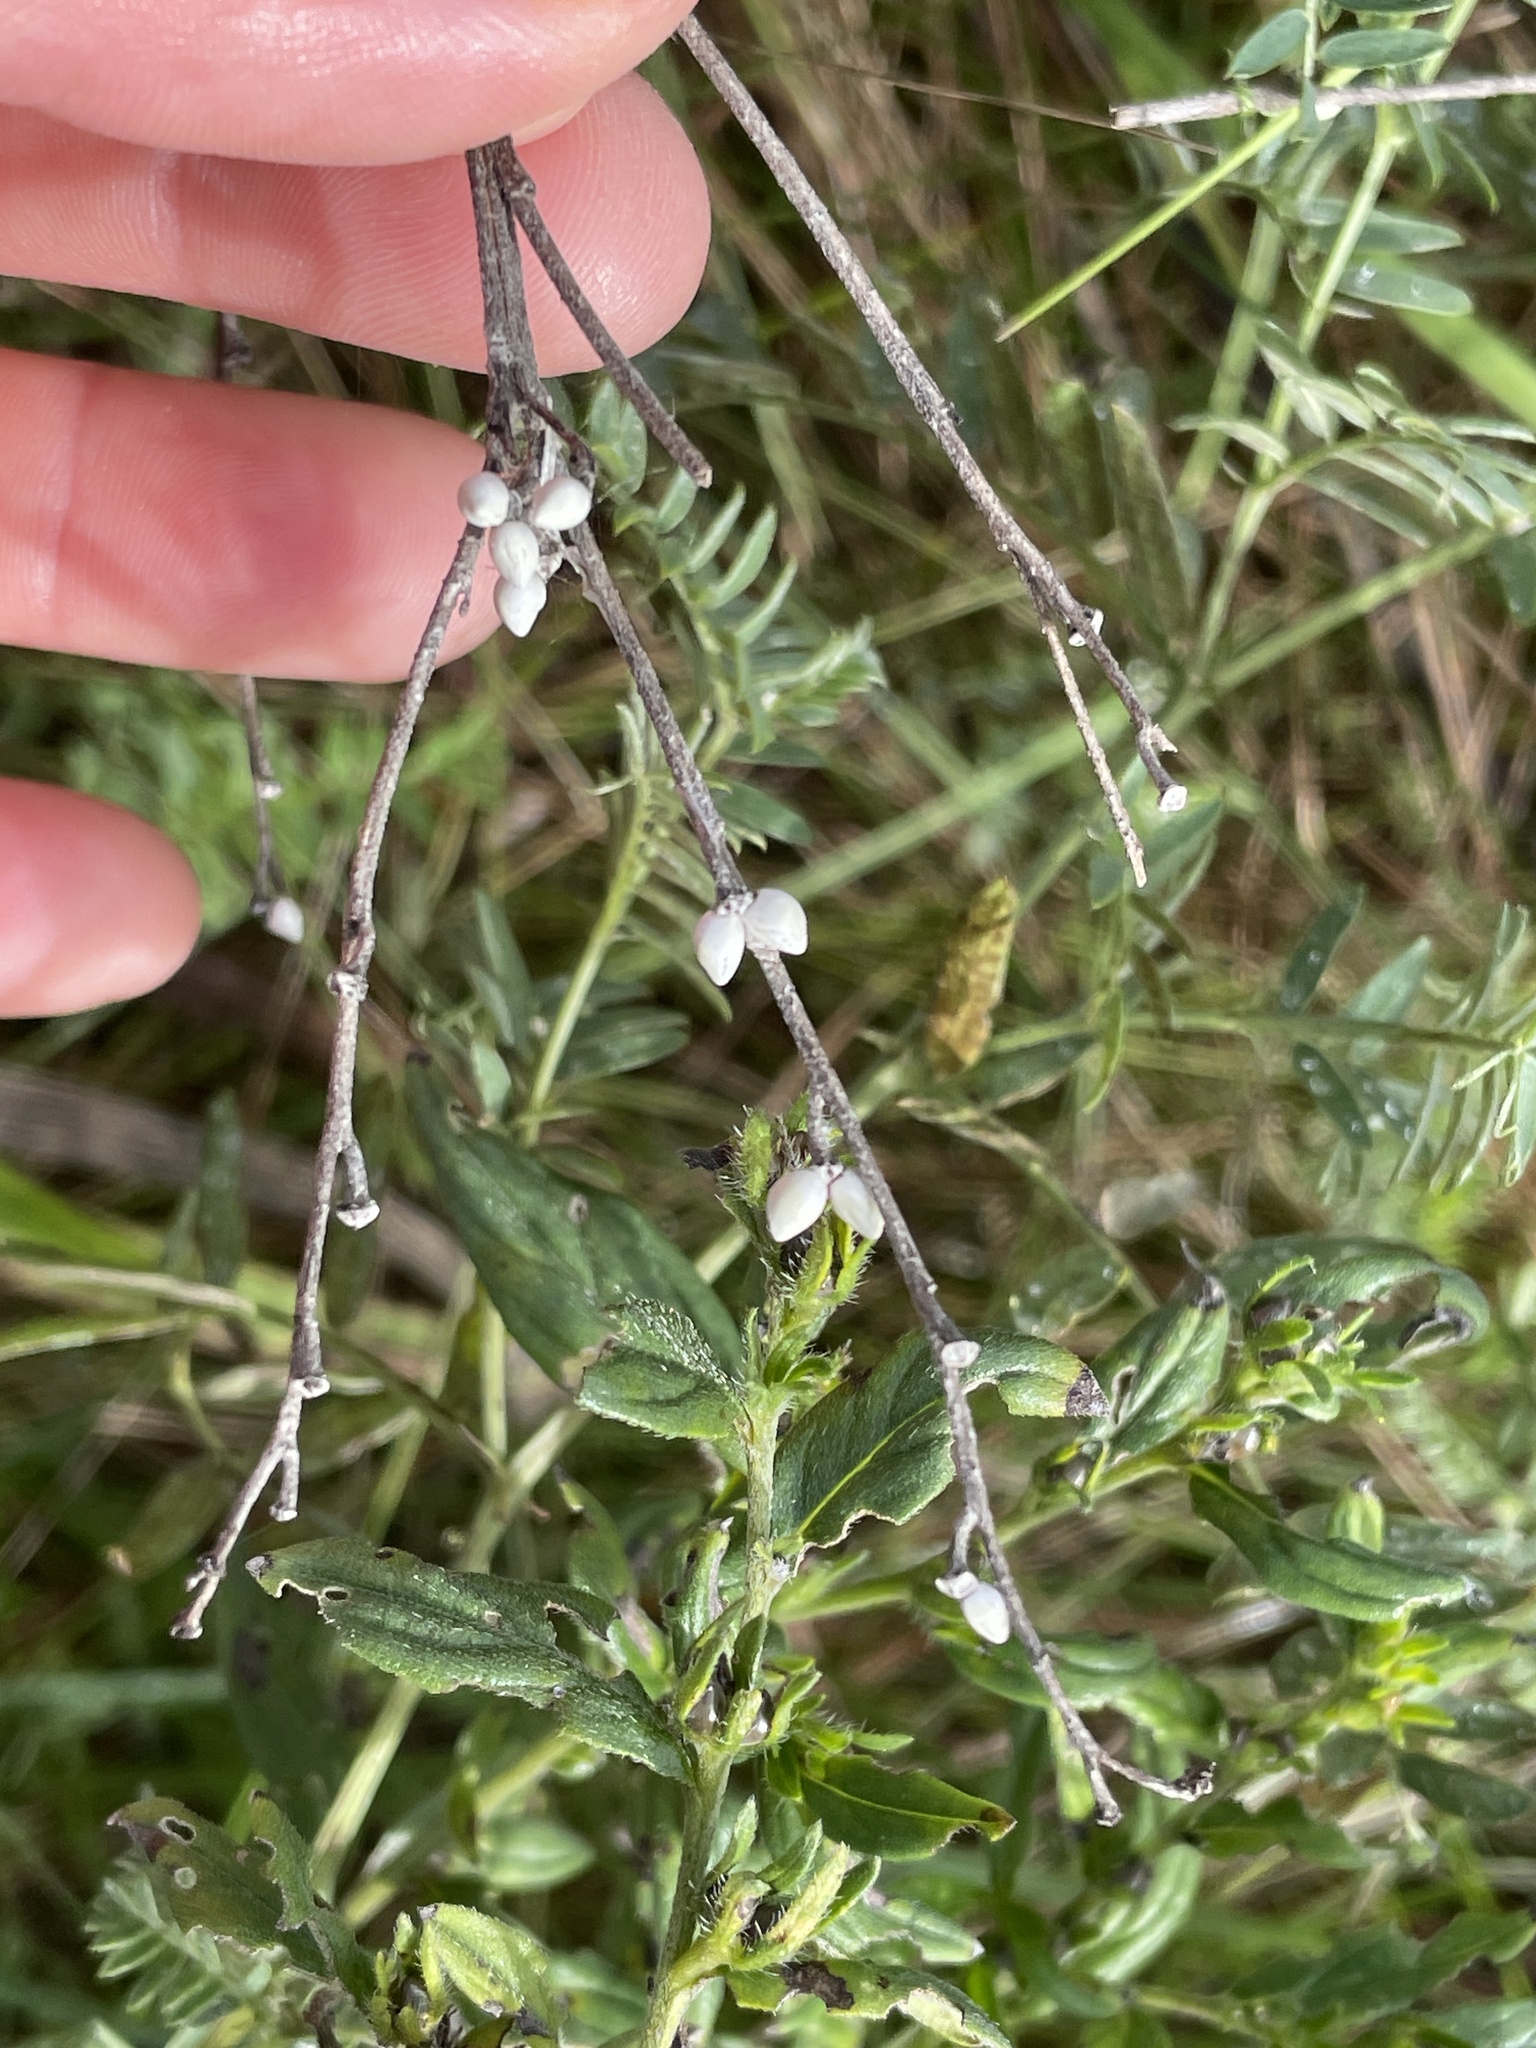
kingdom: Plantae
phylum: Tracheophyta
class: Magnoliopsida
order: Boraginales
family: Boraginaceae
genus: Lithospermum
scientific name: Lithospermum officinale
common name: Common gromwell
